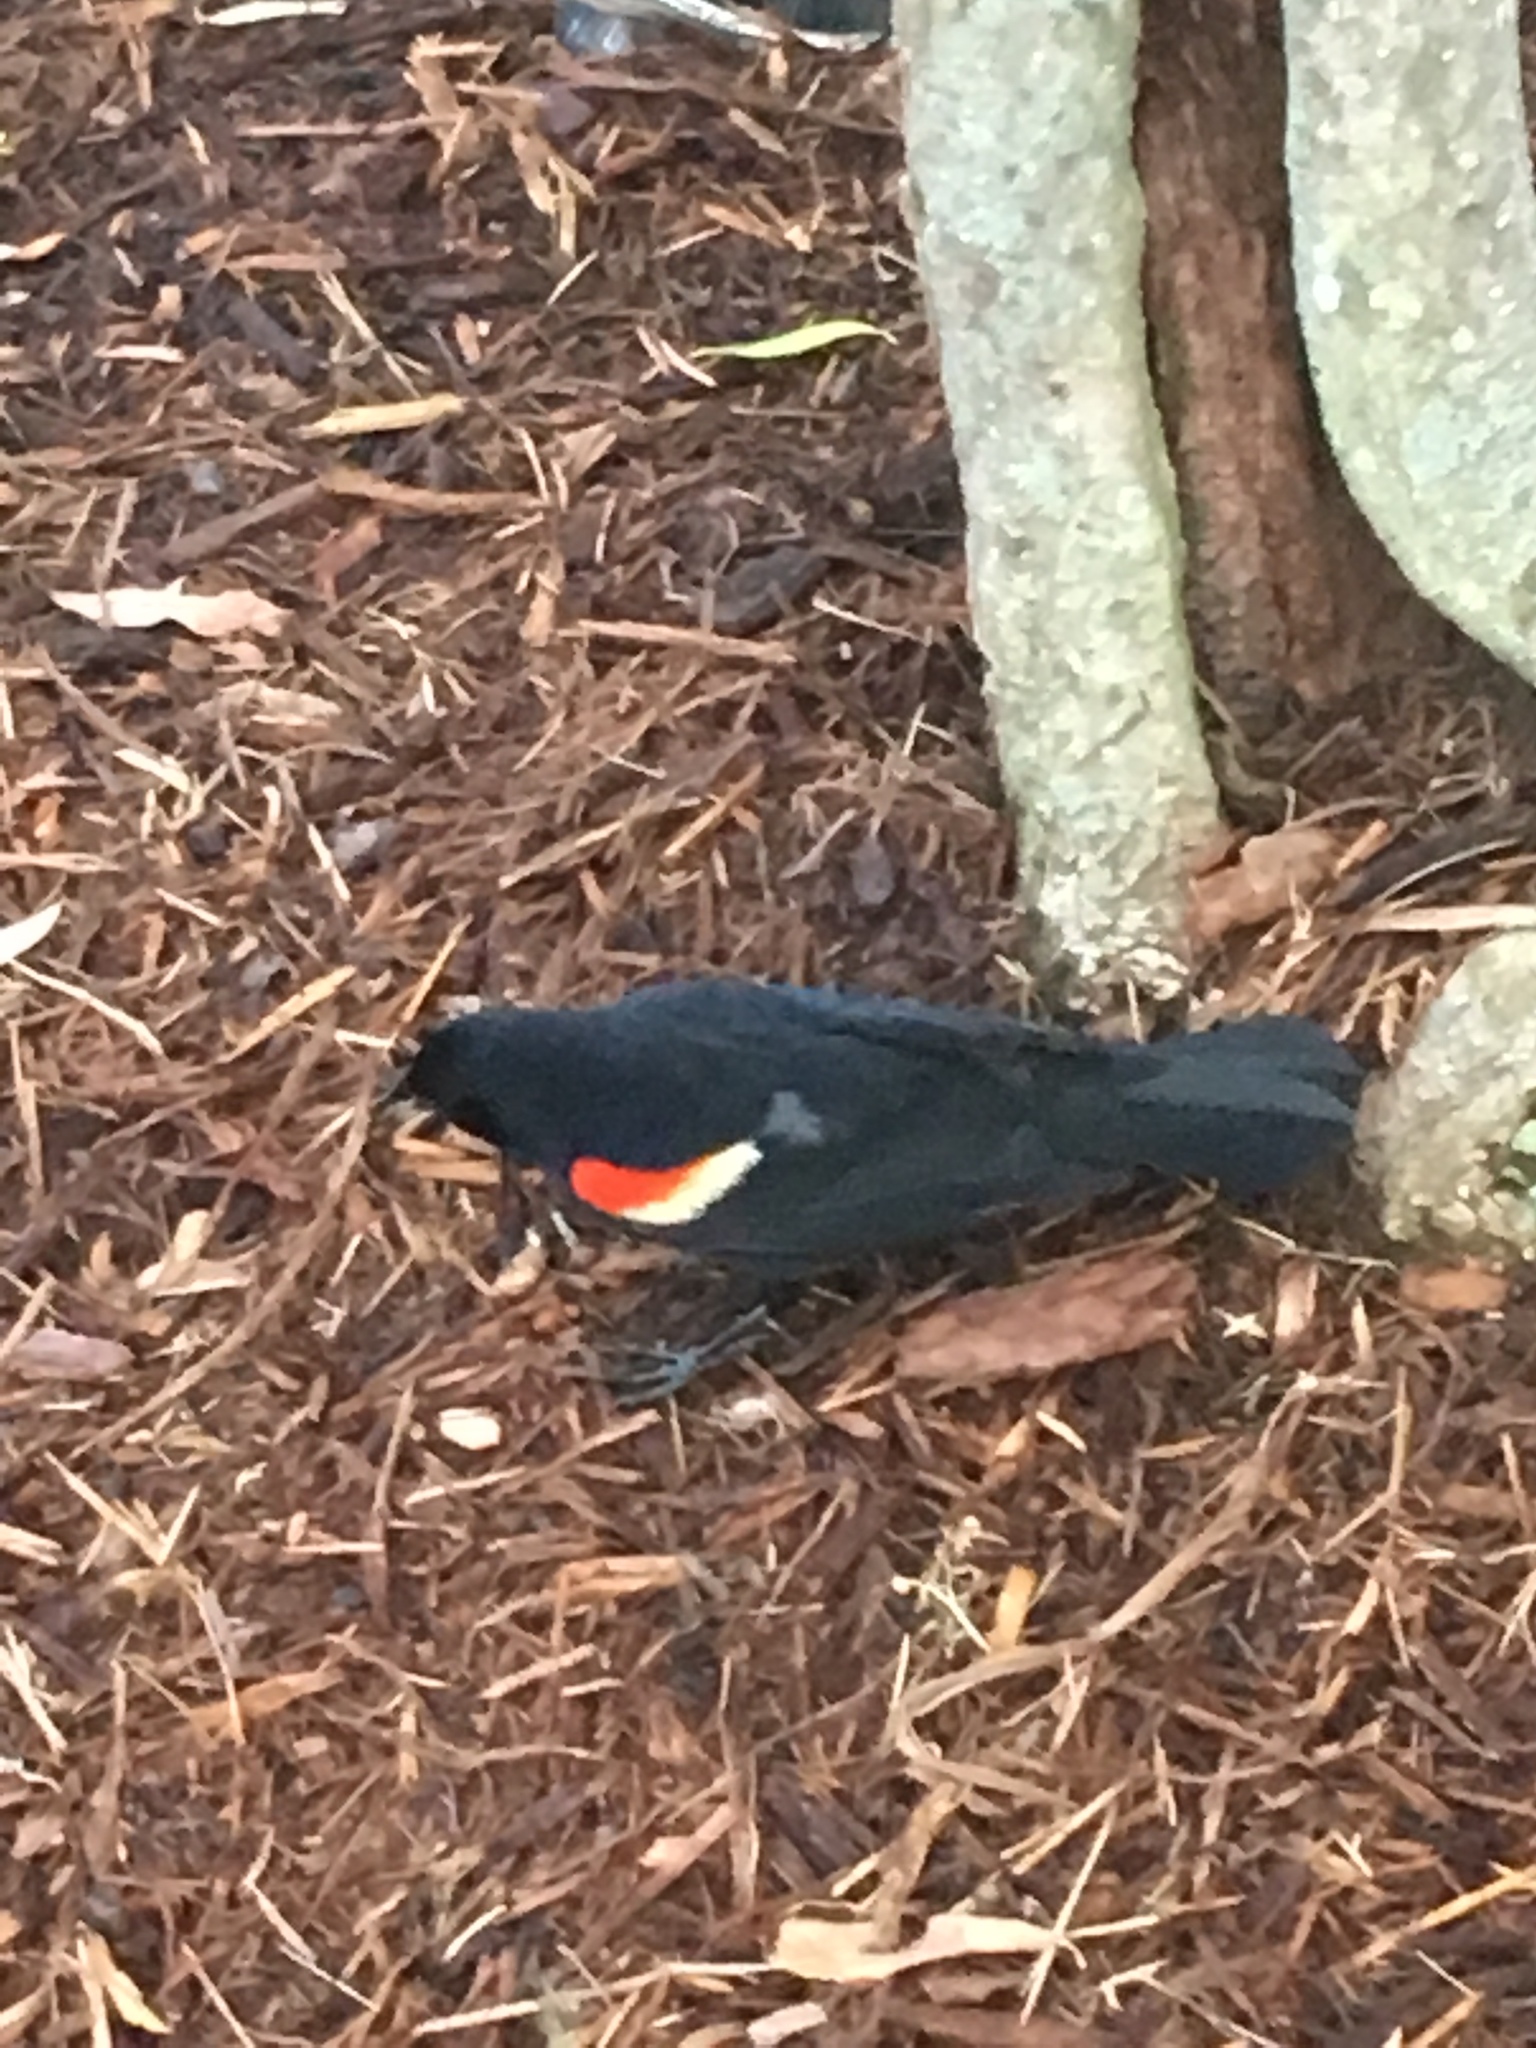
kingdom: Animalia
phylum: Chordata
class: Aves
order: Passeriformes
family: Icteridae
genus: Agelaius
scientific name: Agelaius phoeniceus
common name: Red-winged blackbird
